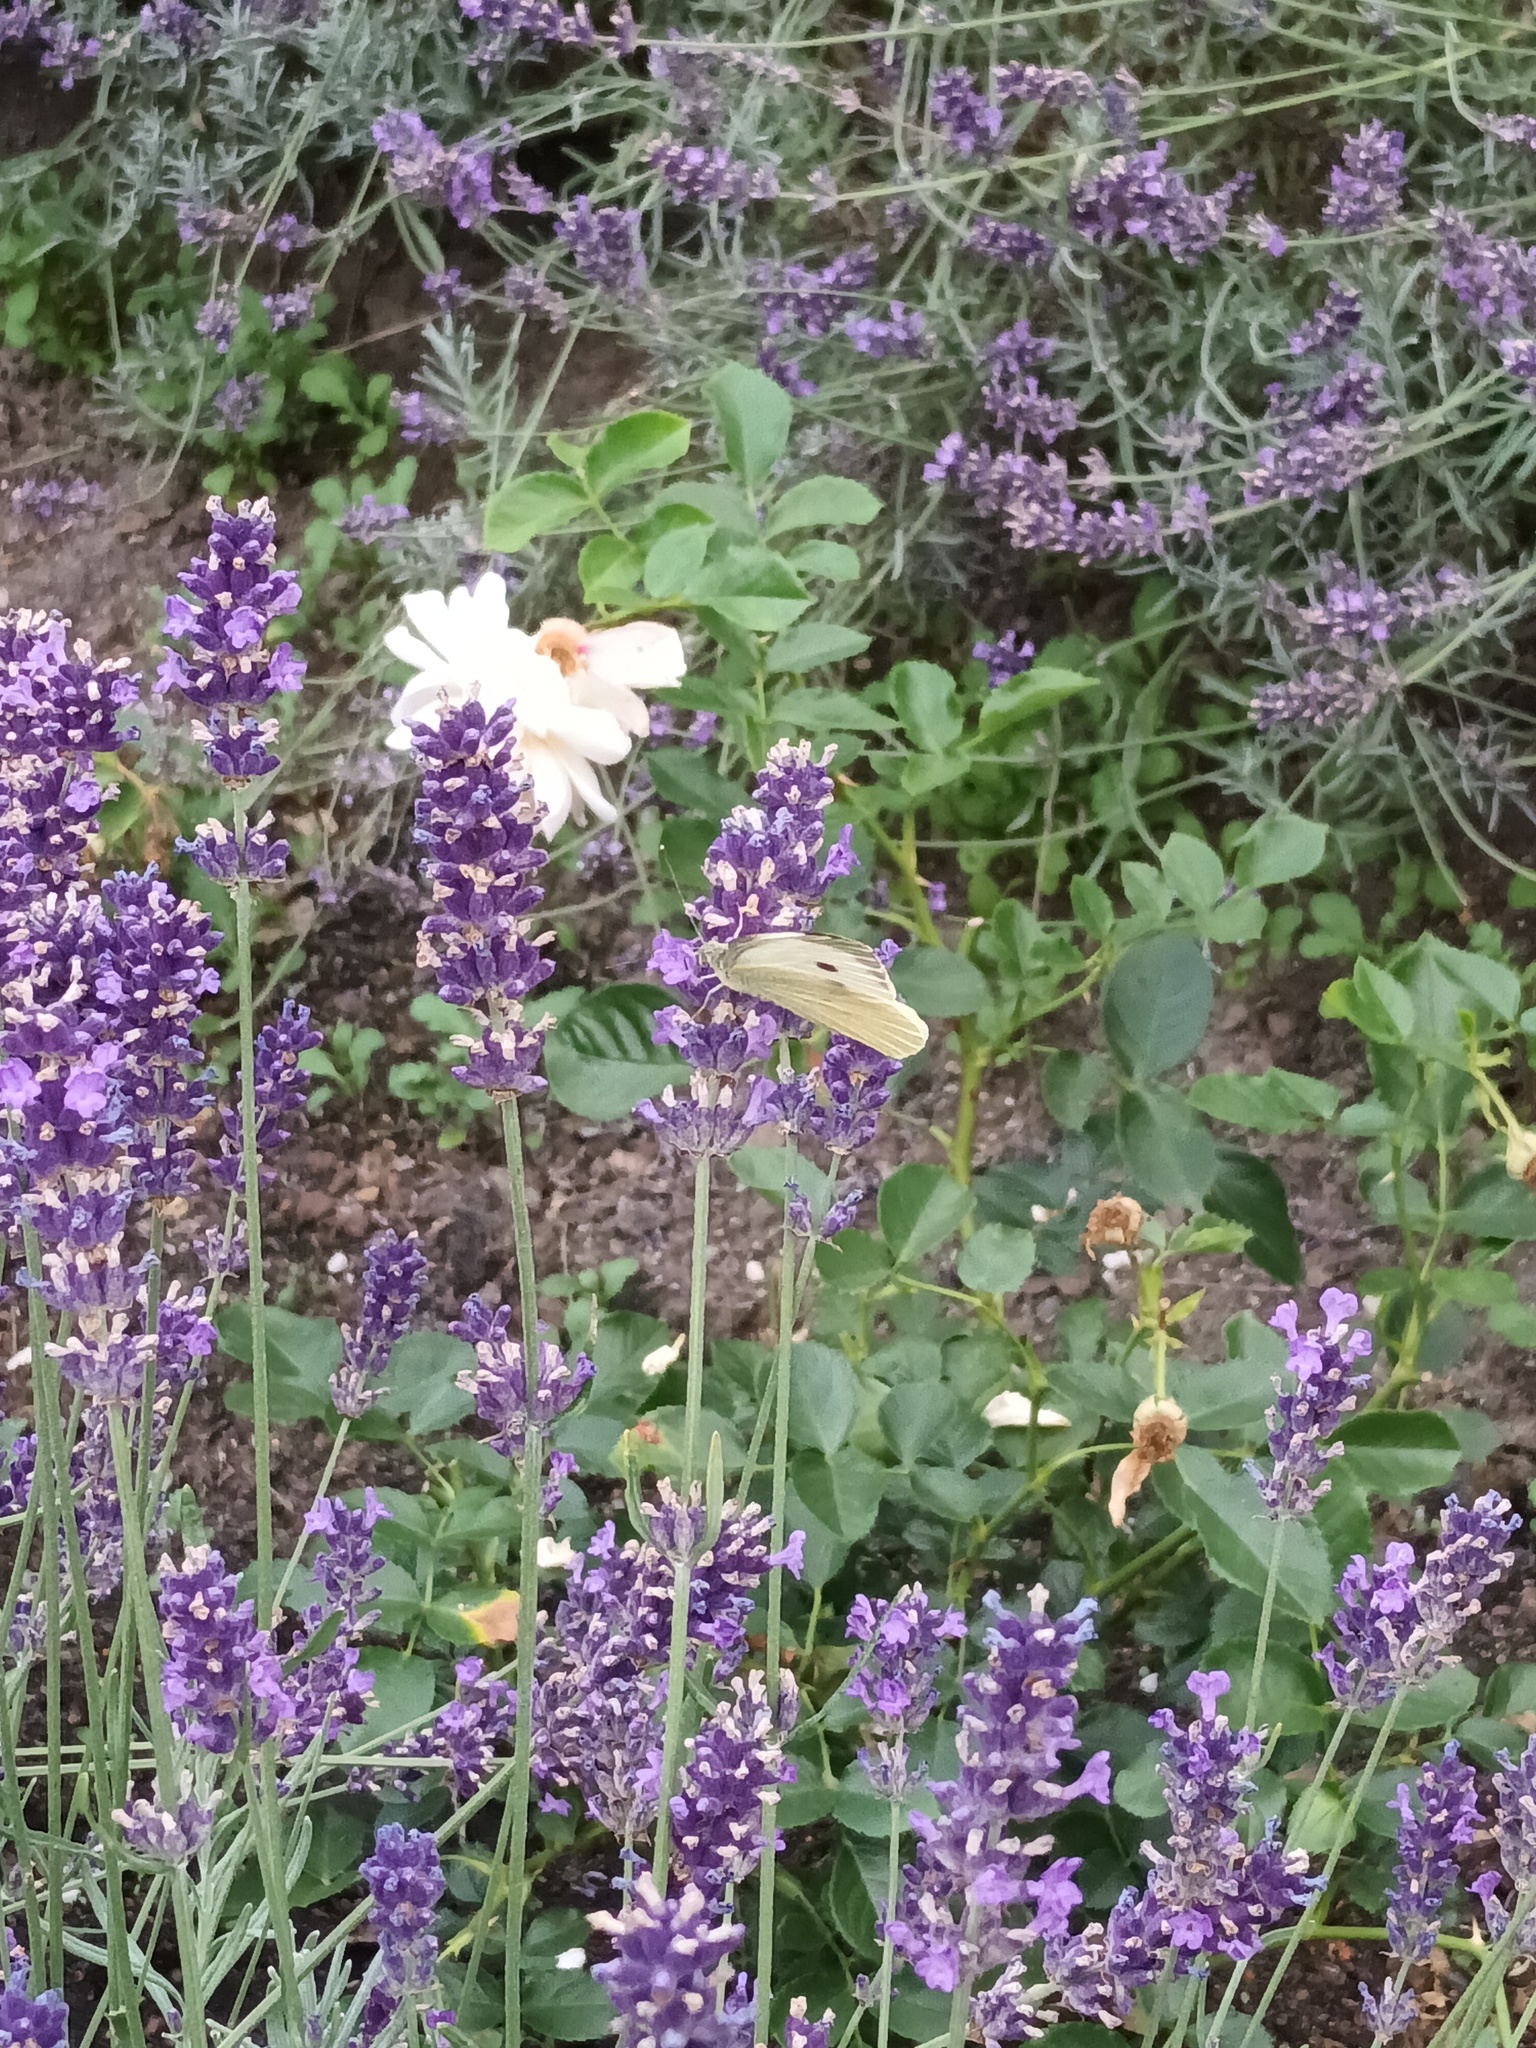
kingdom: Animalia
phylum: Arthropoda
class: Insecta
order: Lepidoptera
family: Pieridae
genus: Pieris
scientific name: Pieris brassicae
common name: Large white
